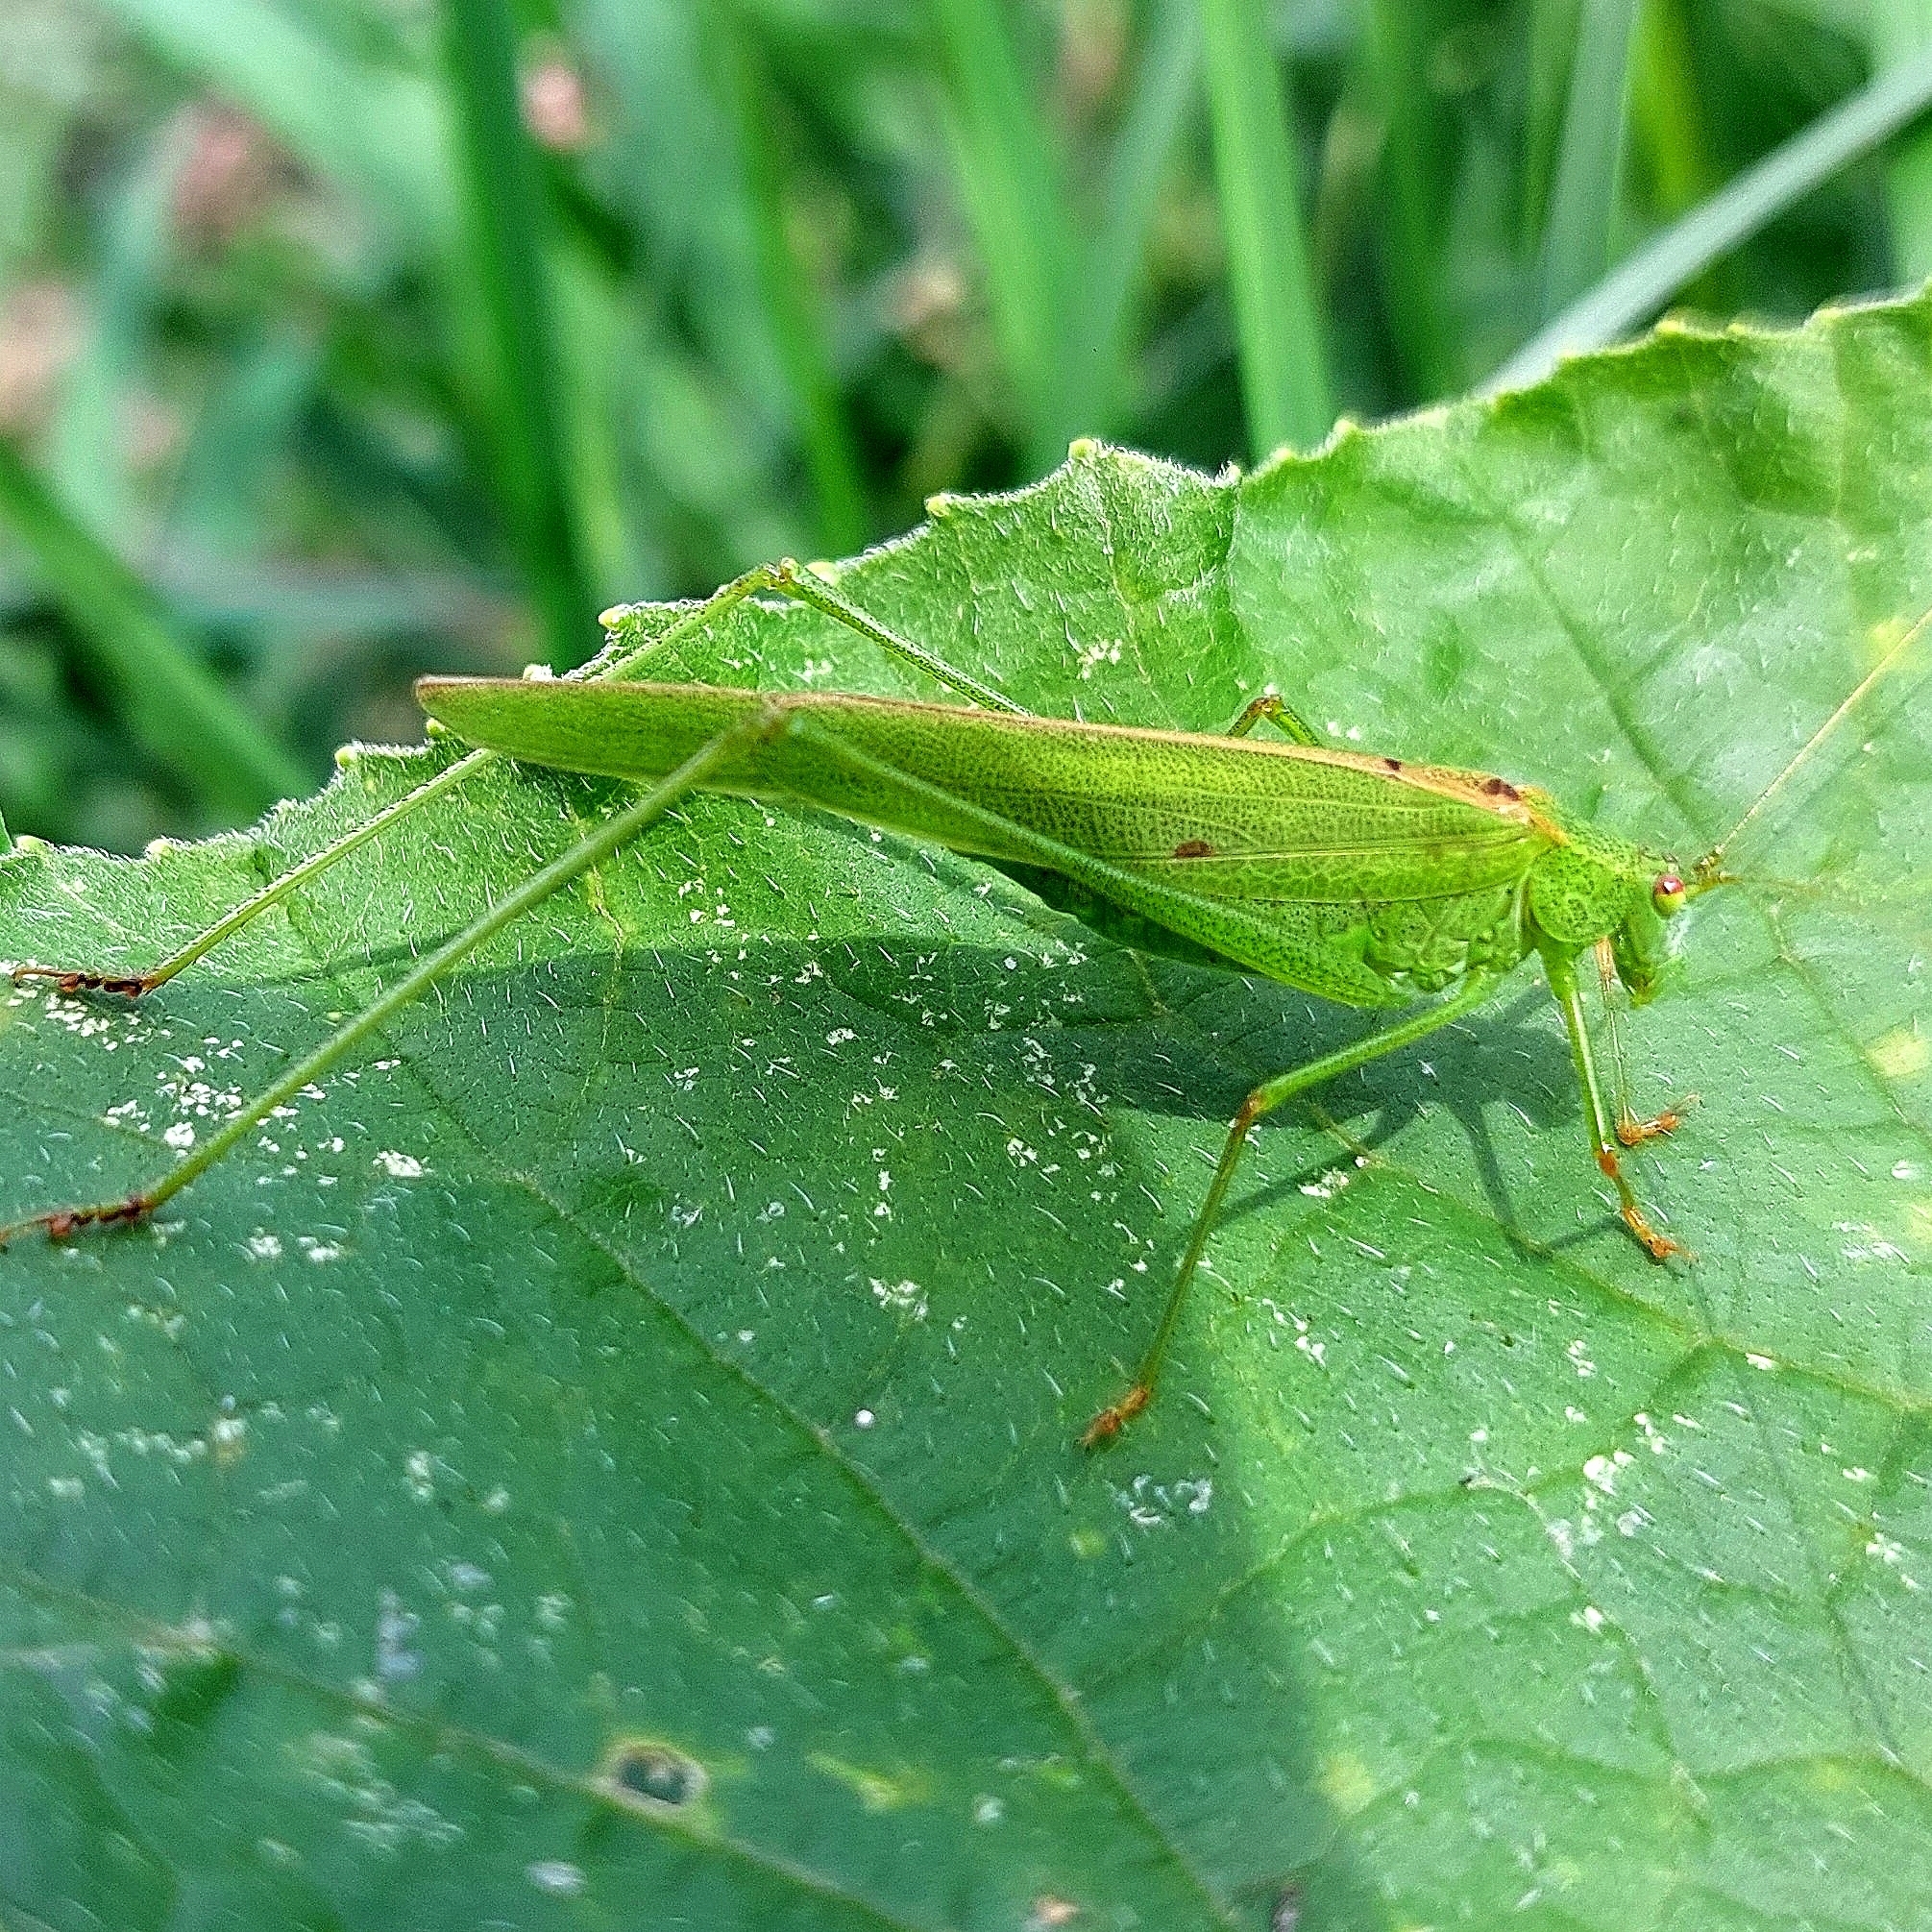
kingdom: Animalia
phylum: Arthropoda
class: Insecta
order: Orthoptera
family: Tettigoniidae
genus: Phaneroptera
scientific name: Phaneroptera falcata
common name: Sickle-bearing bush-cricket
